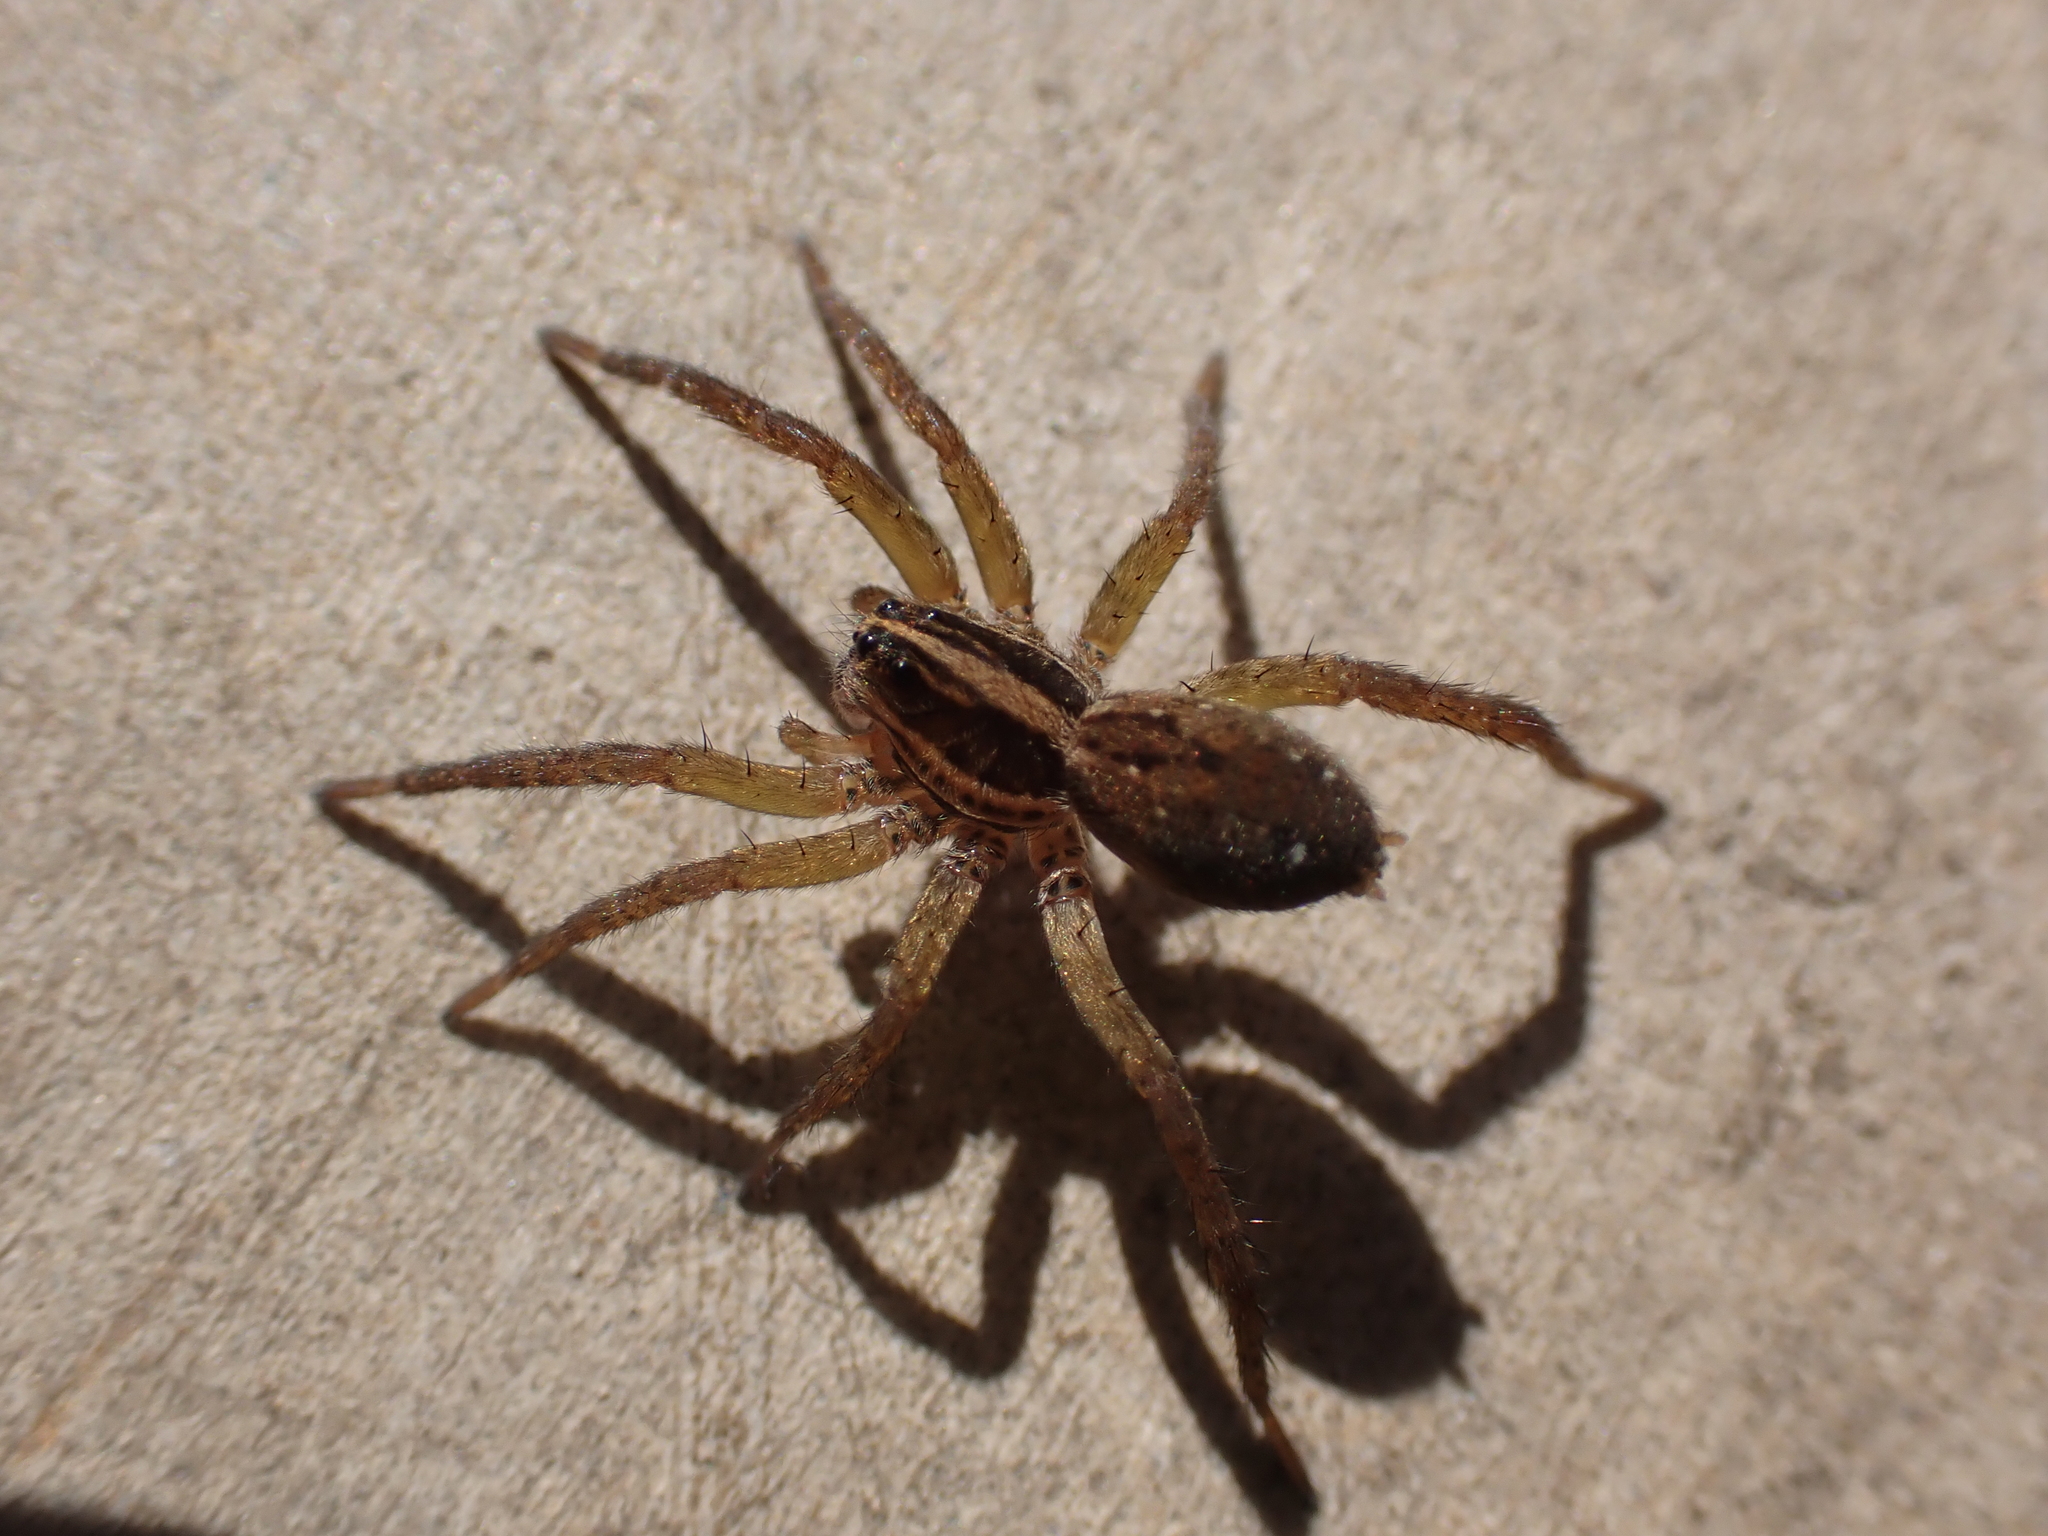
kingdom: Animalia
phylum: Arthropoda
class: Arachnida
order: Araneae
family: Lycosidae
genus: Tigrosa
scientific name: Tigrosa annexa
